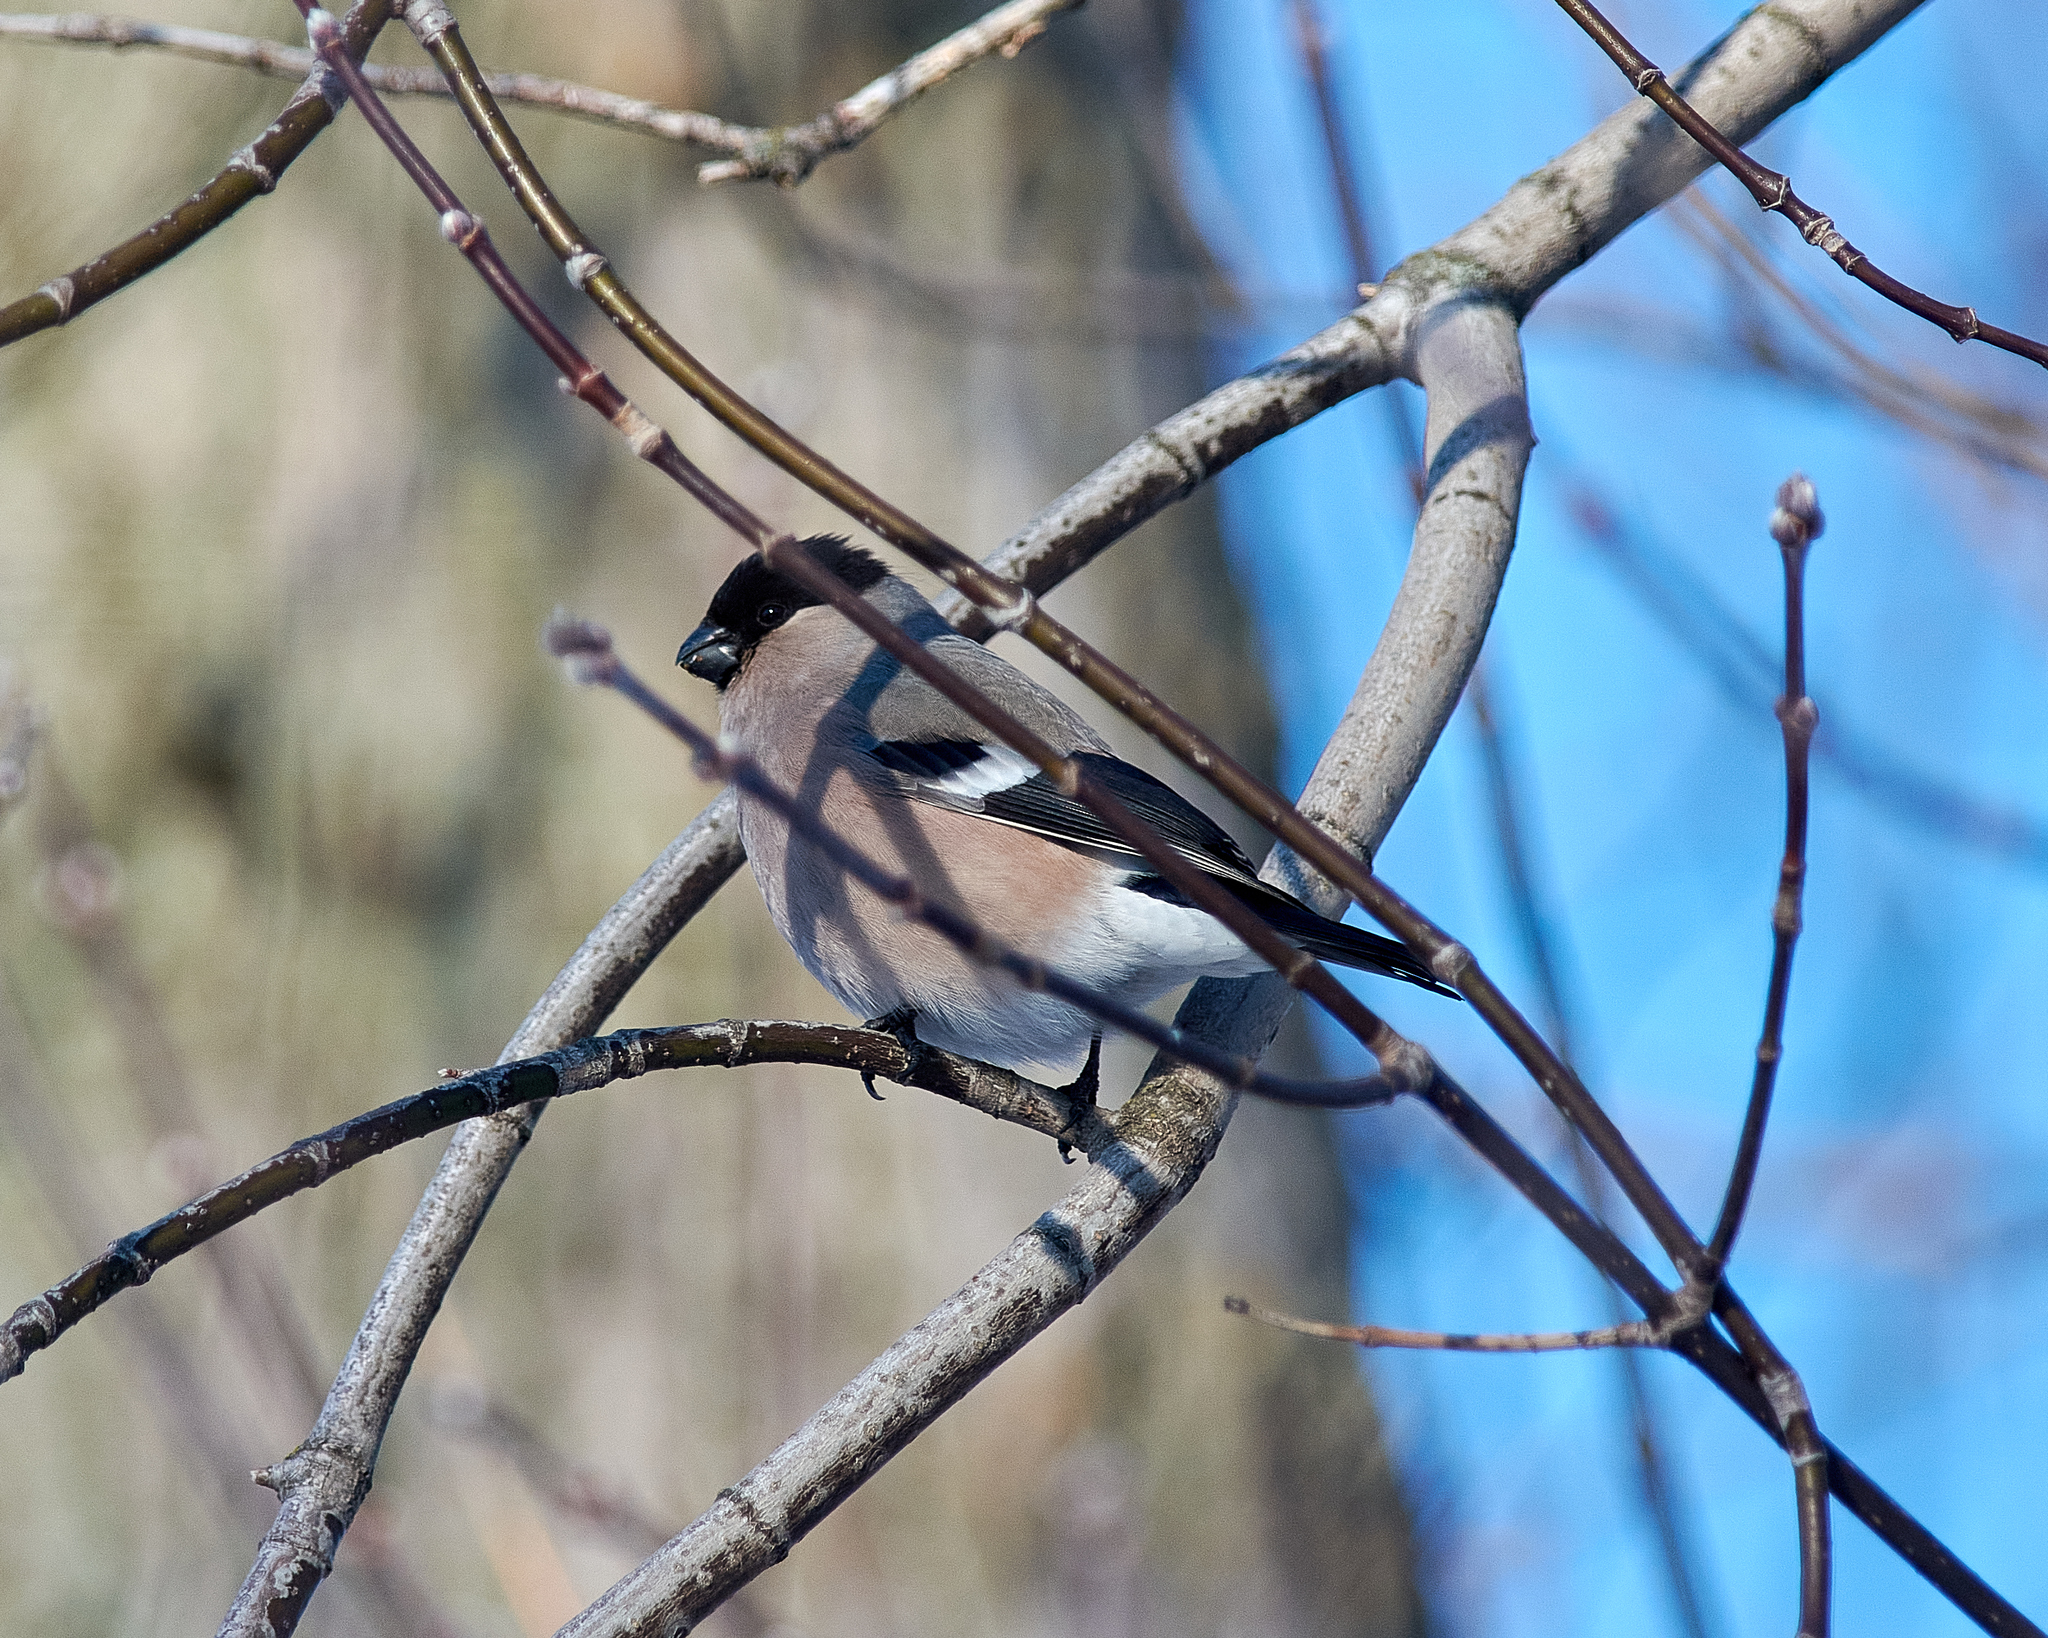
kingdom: Animalia
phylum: Chordata
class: Aves
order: Passeriformes
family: Fringillidae
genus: Pyrrhula
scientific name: Pyrrhula pyrrhula
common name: Eurasian bullfinch
